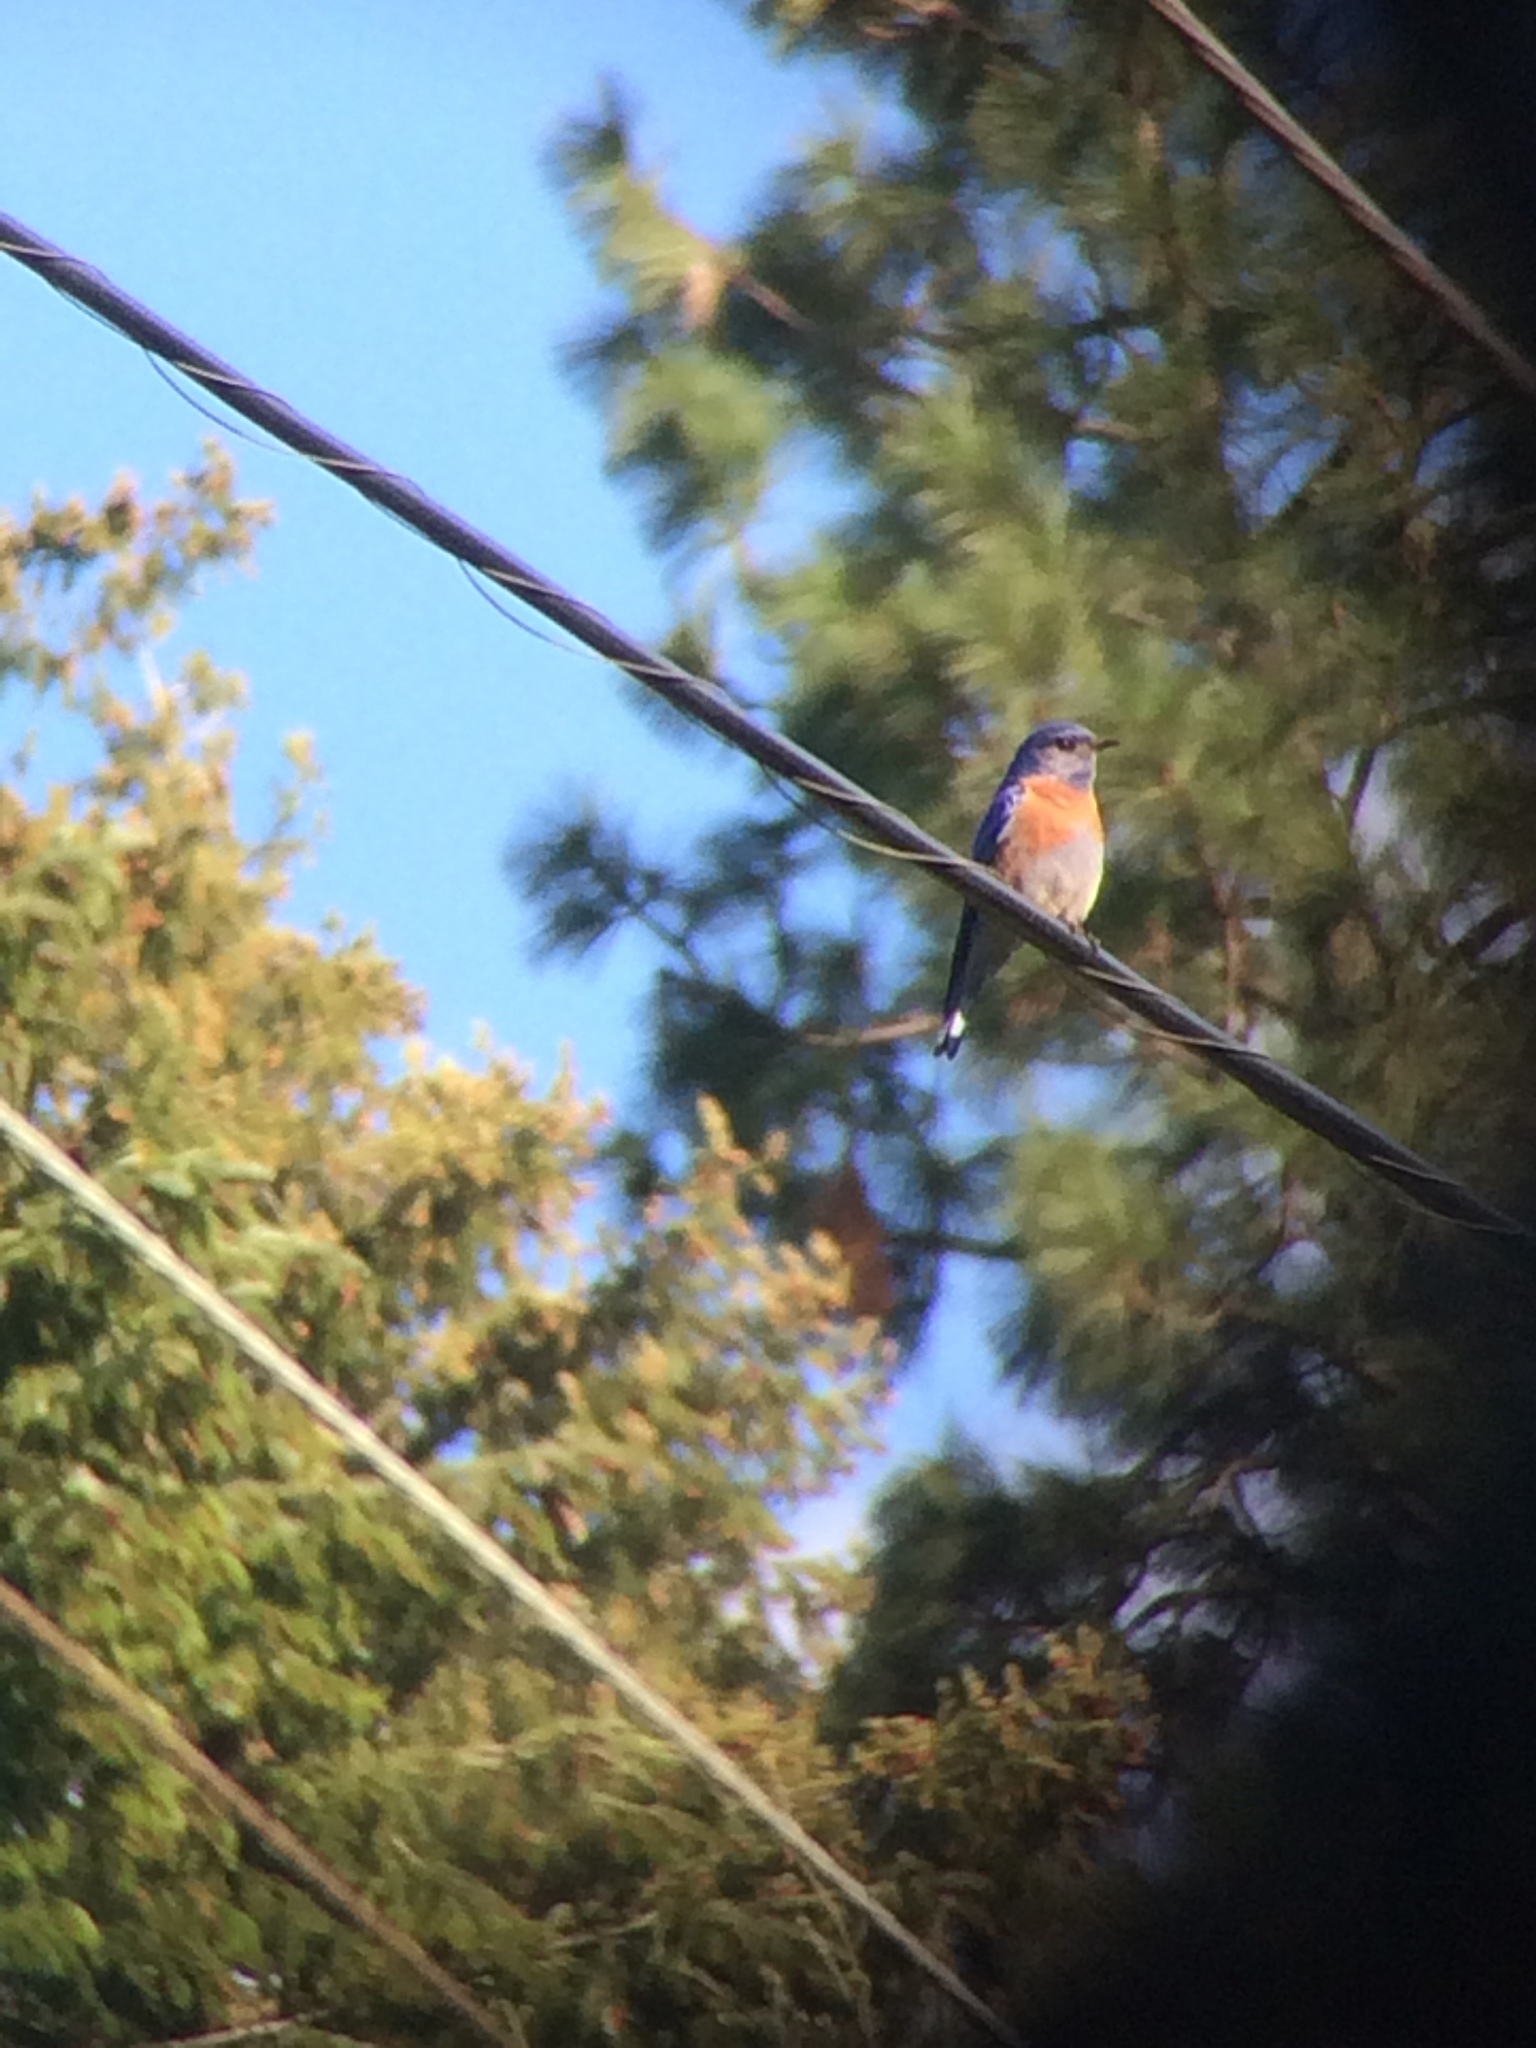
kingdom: Animalia
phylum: Chordata
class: Aves
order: Passeriformes
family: Turdidae
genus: Sialia
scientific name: Sialia mexicana
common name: Western bluebird
